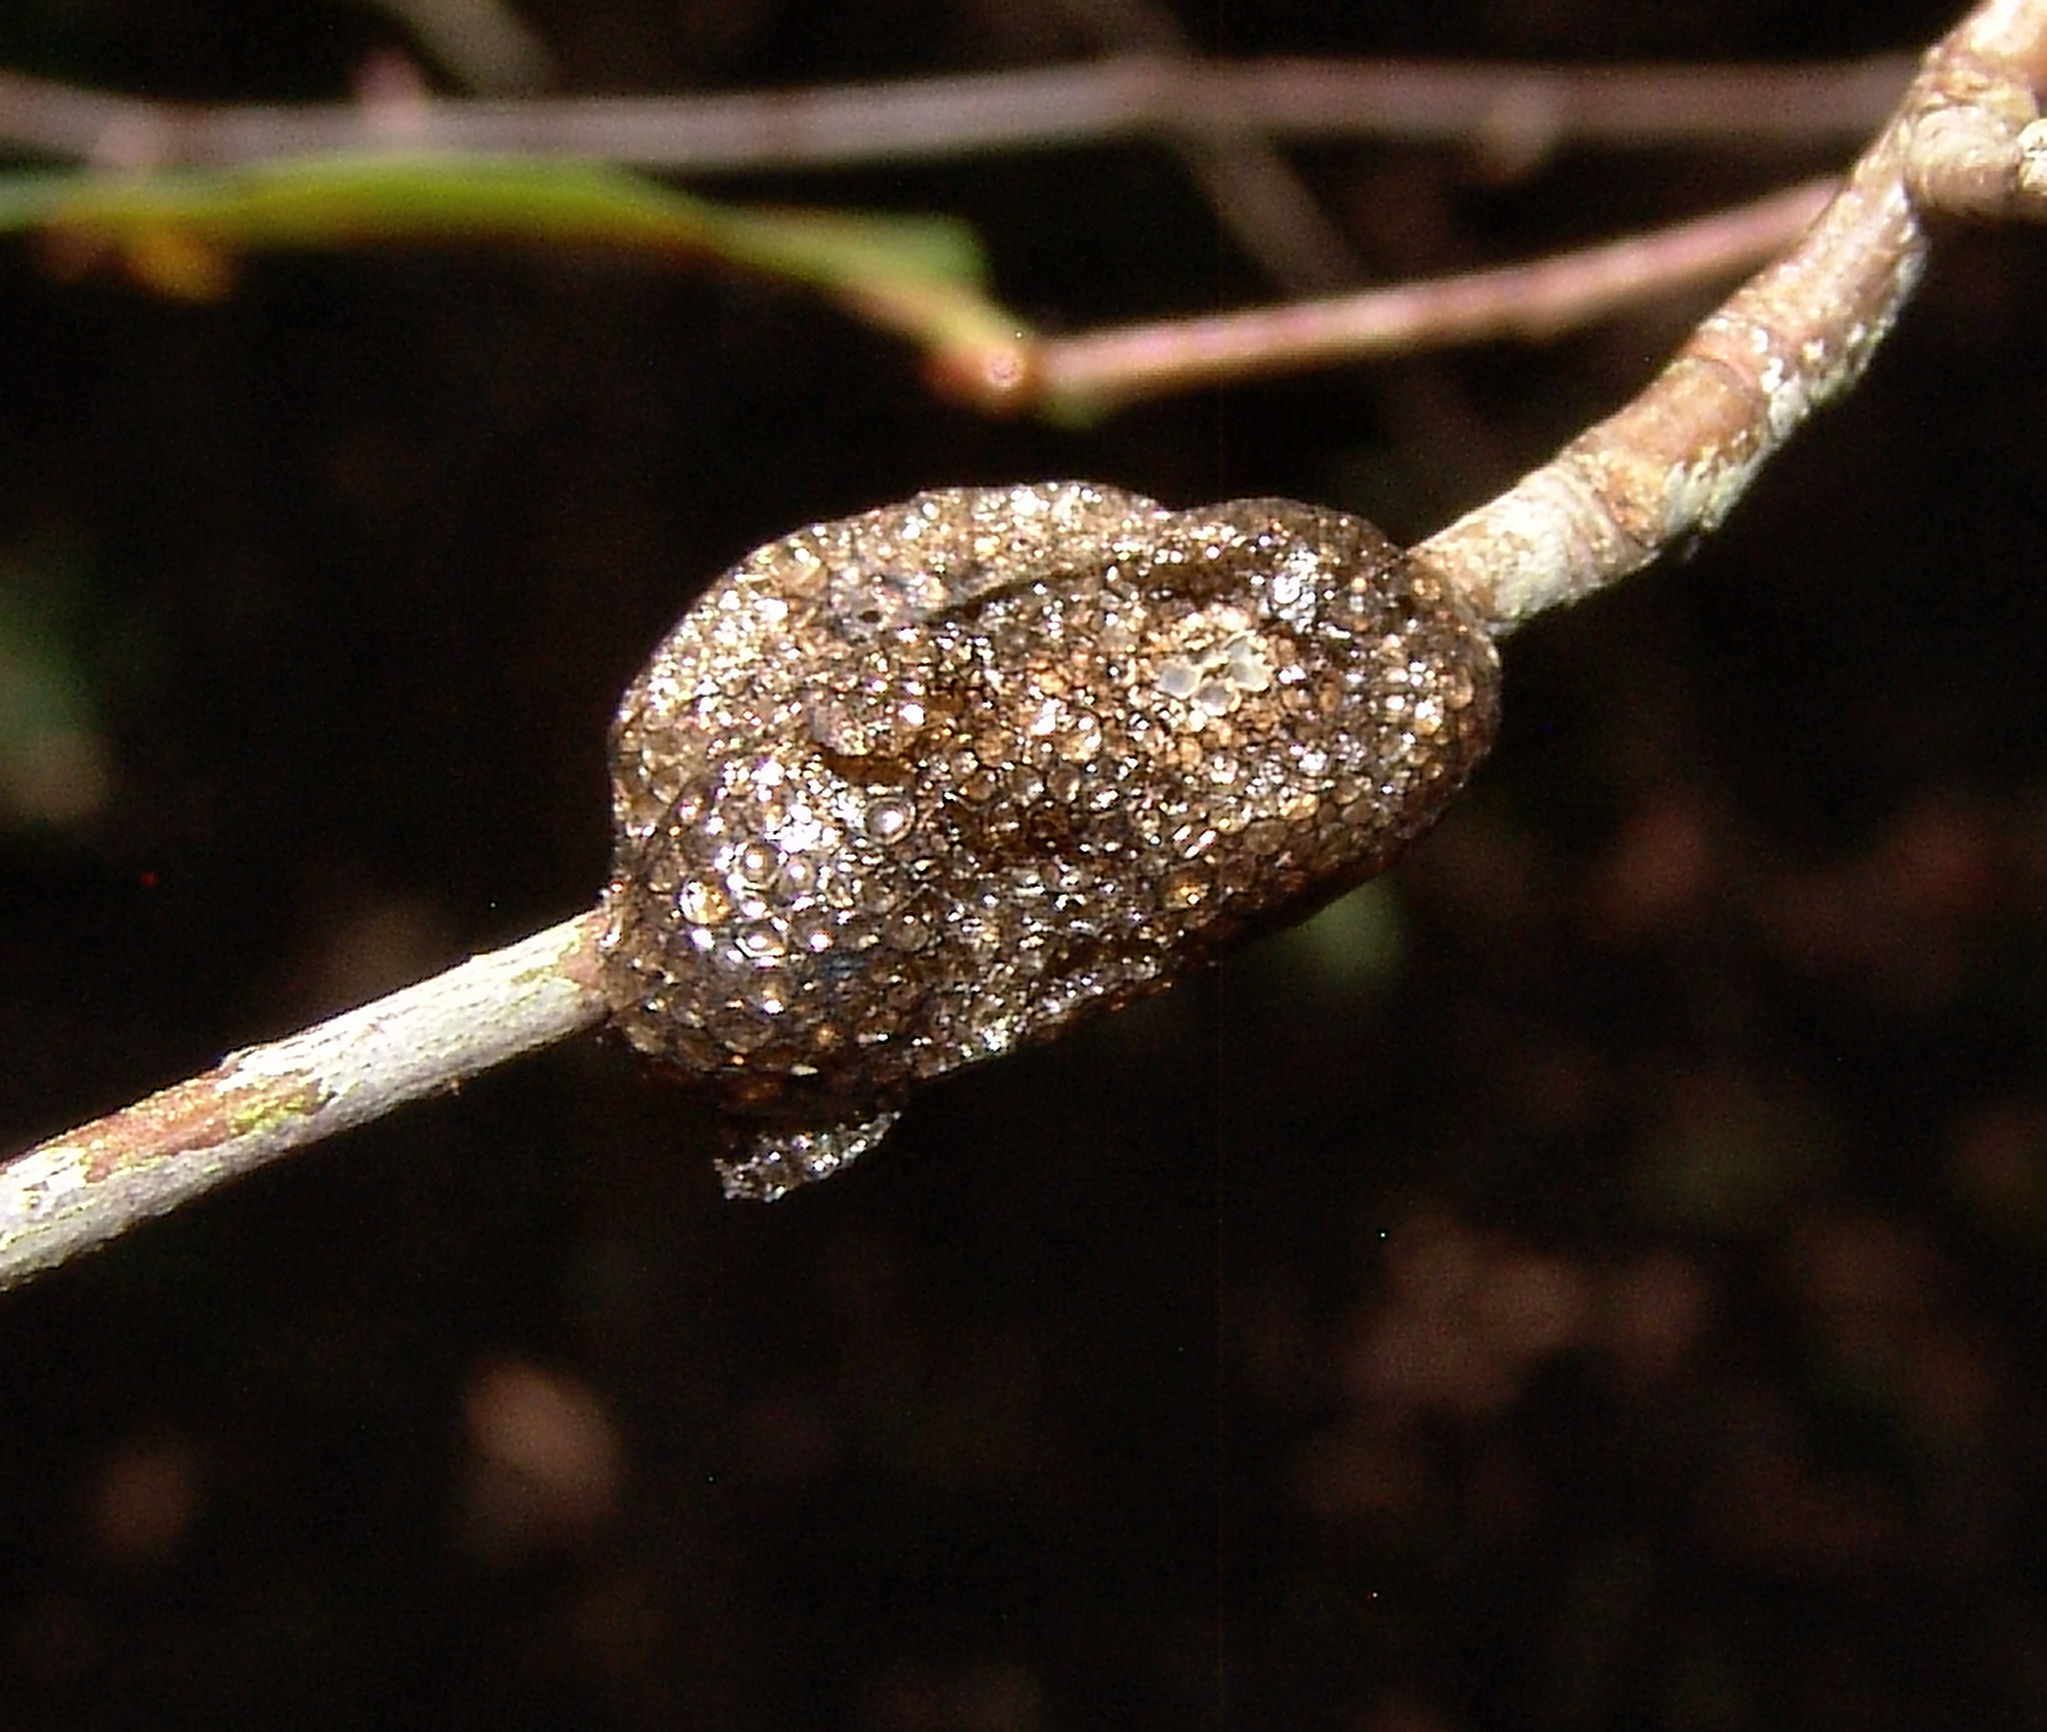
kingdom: Animalia
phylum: Arthropoda
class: Insecta
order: Lepidoptera
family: Lasiocampidae
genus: Malacosoma
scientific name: Malacosoma americana
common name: Eastern tent caterpillar moth
